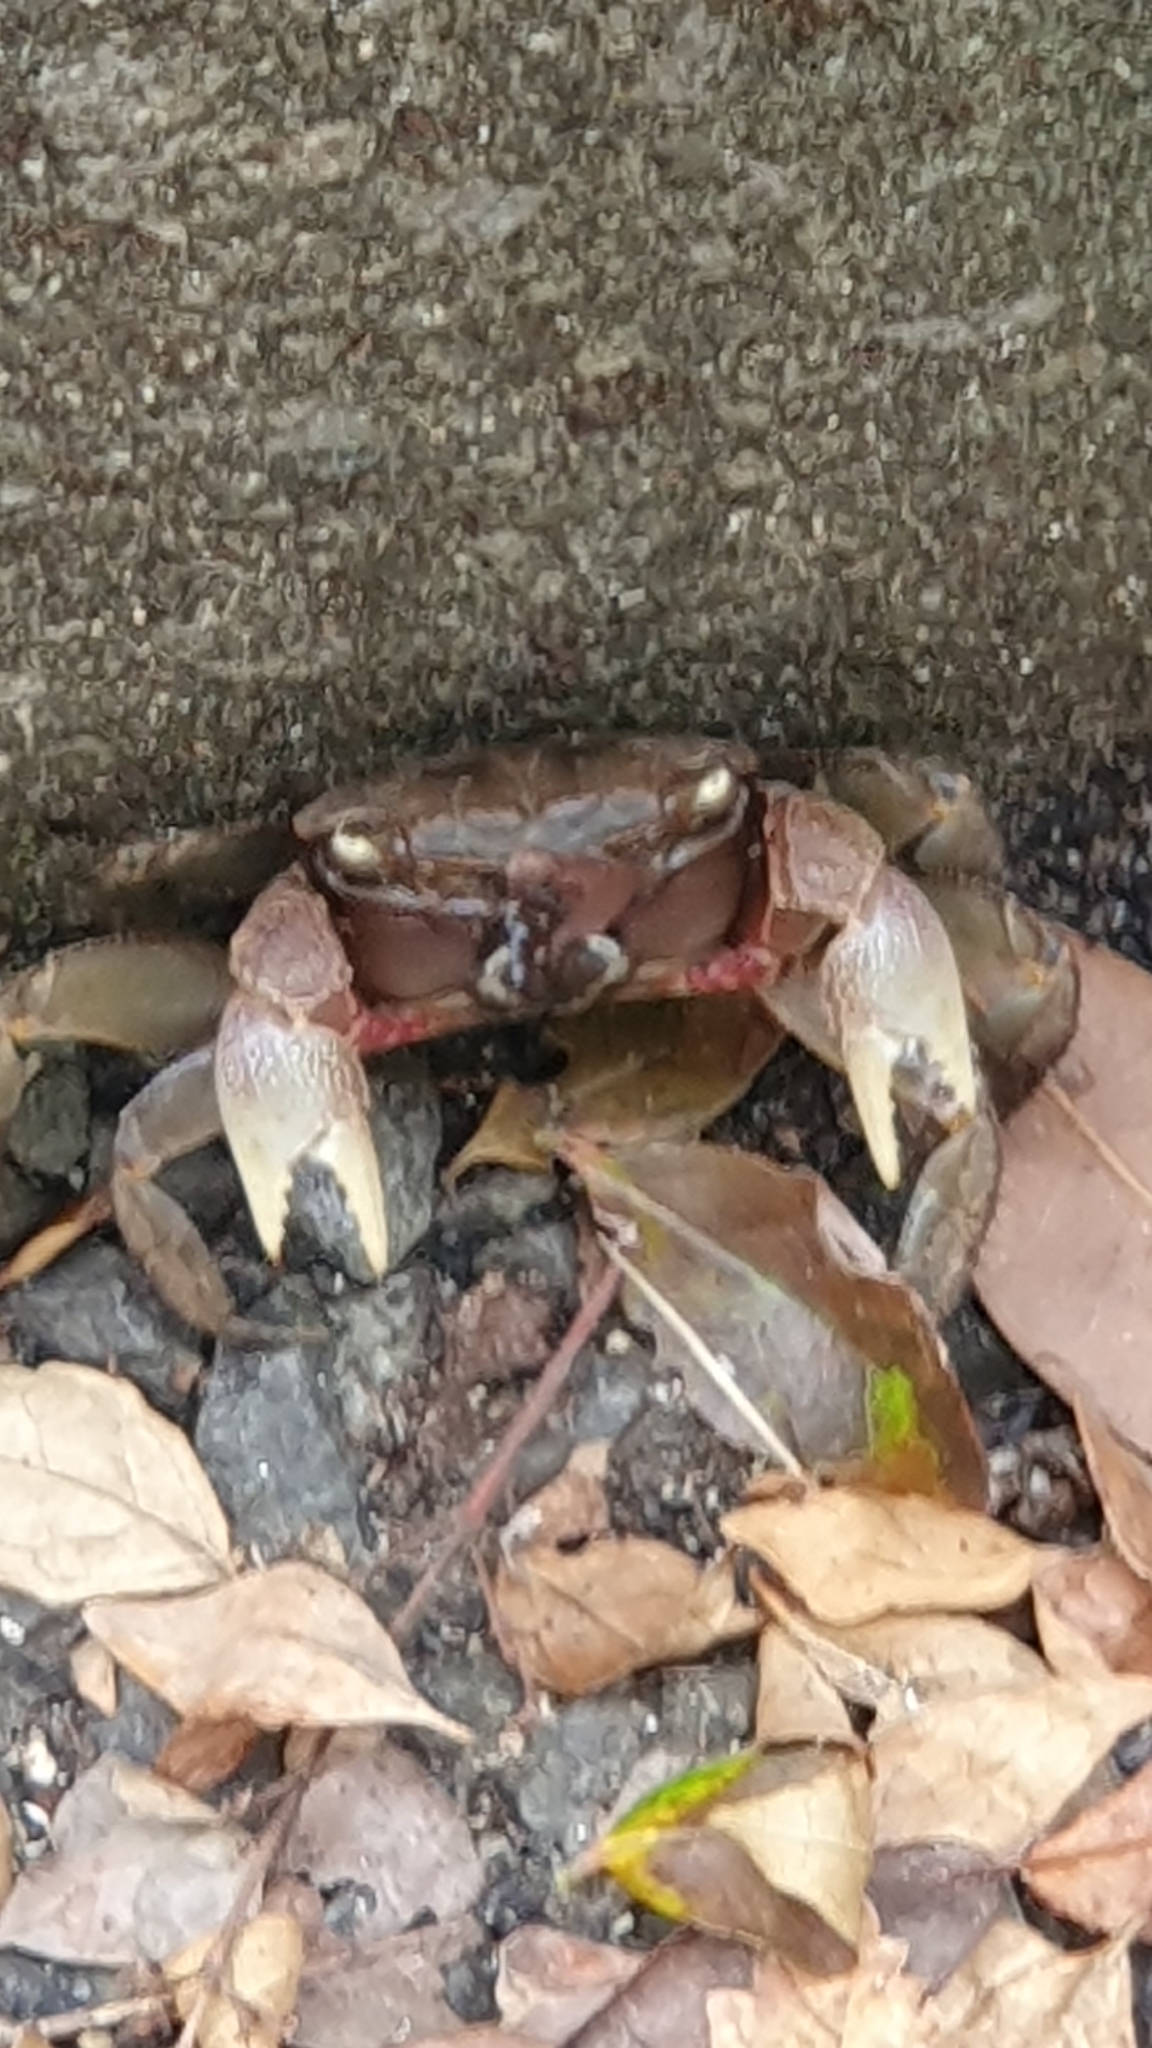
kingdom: Animalia
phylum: Arthropoda
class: Malacostraca
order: Decapoda
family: Sesarmidae
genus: Orisarma
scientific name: Orisarma dehaani
